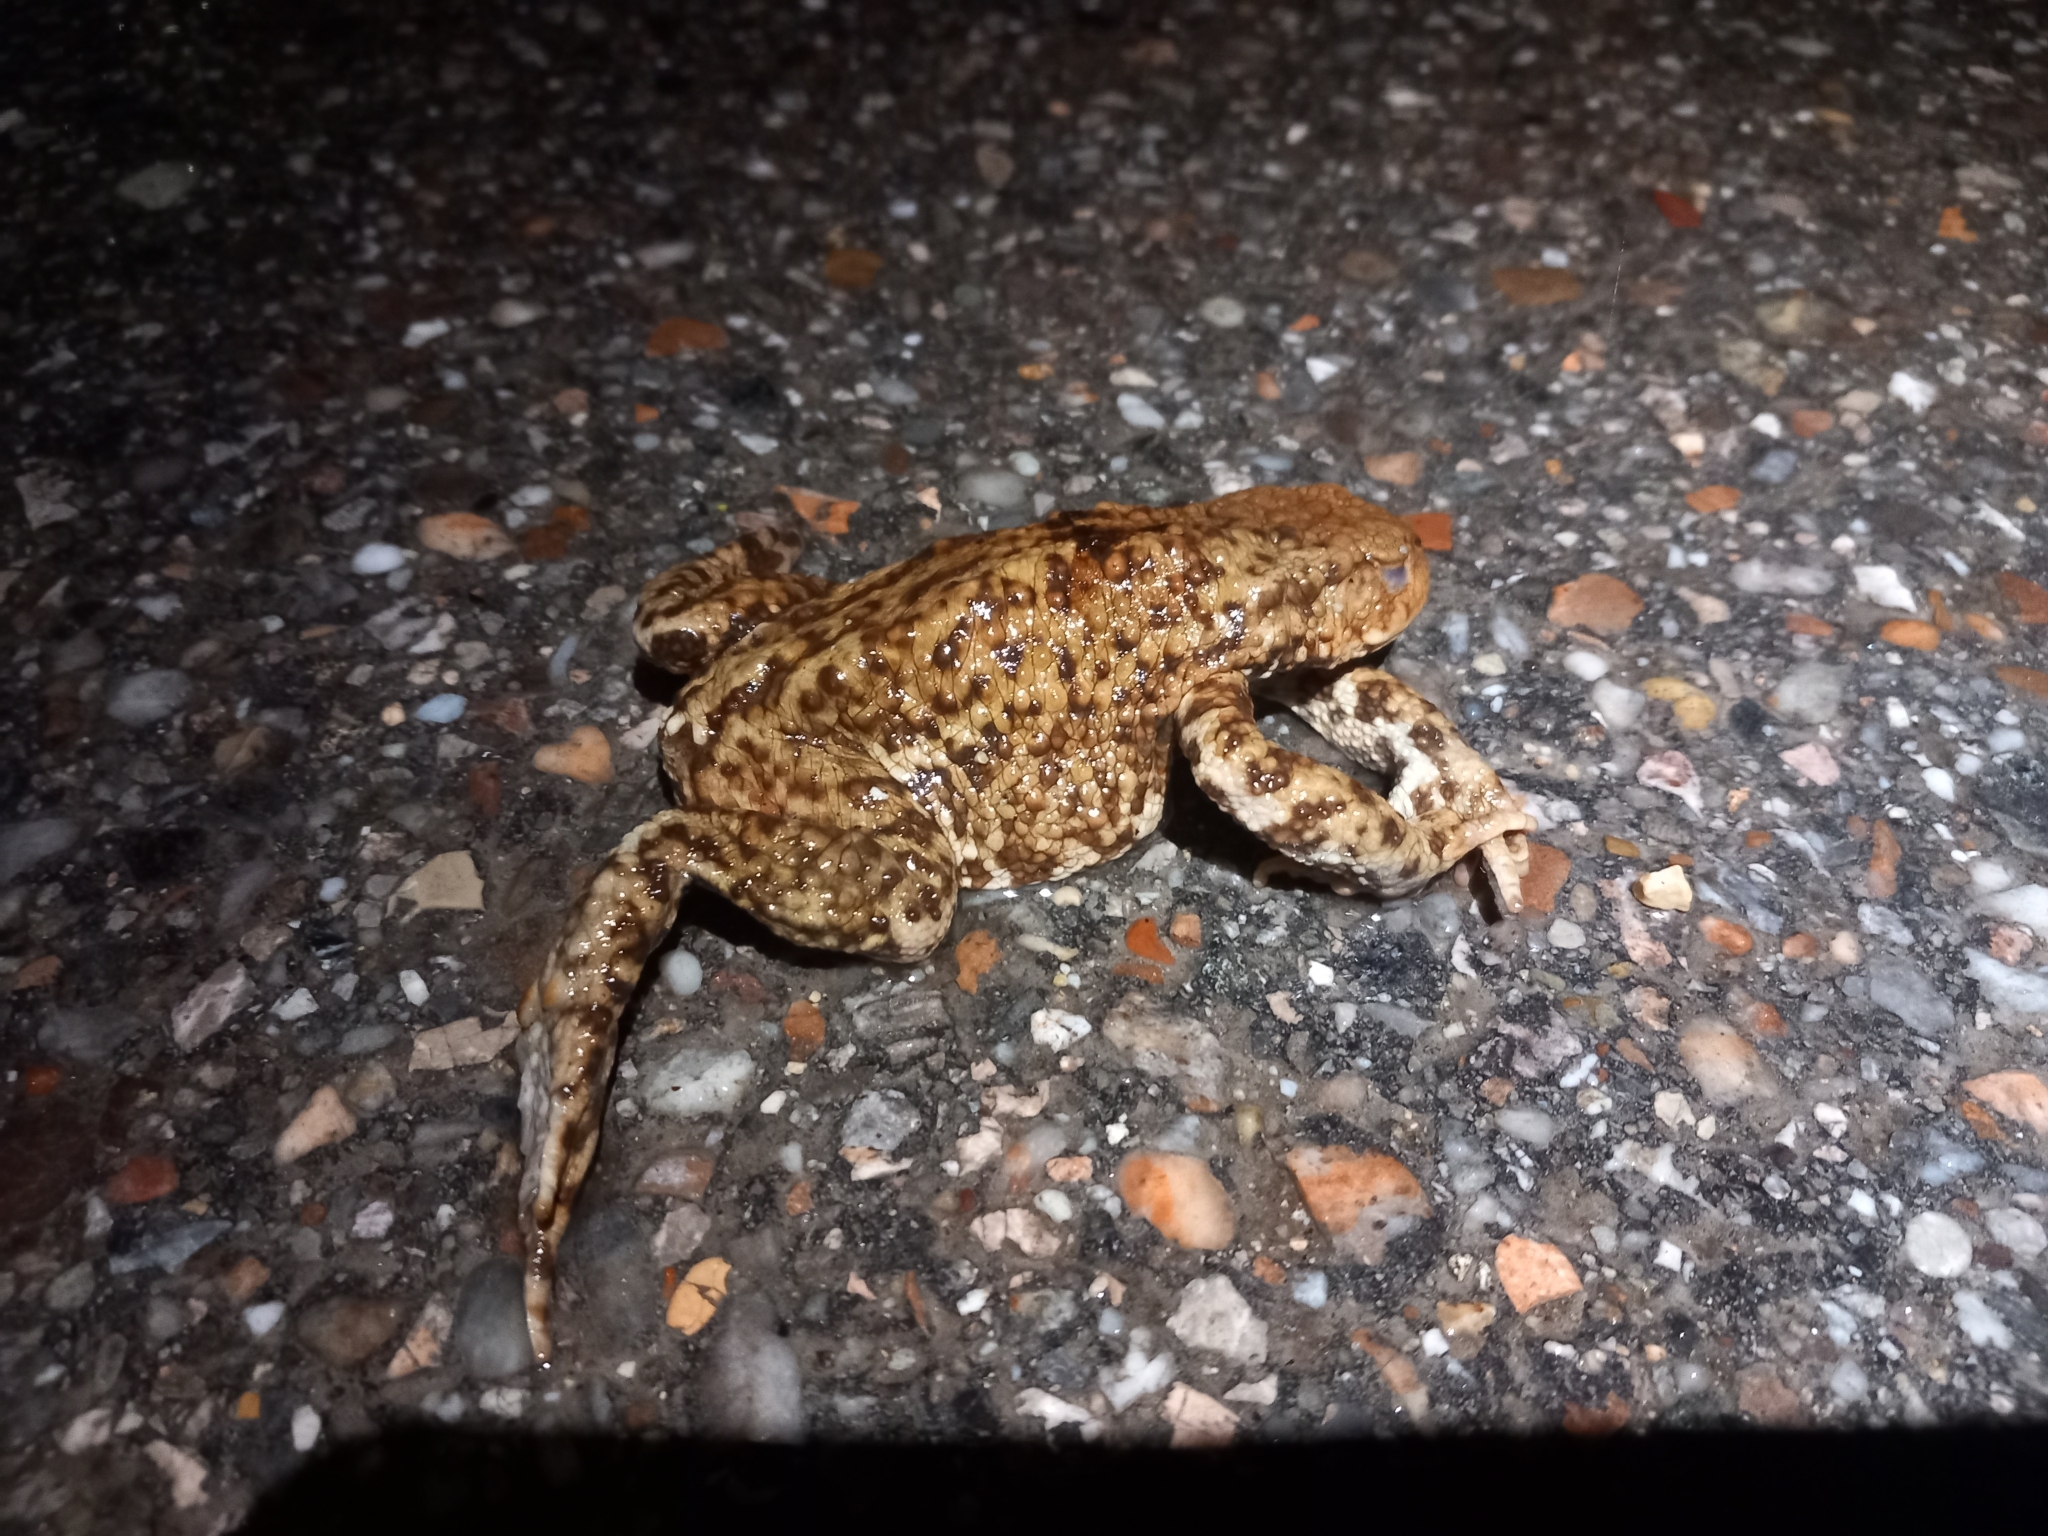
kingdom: Animalia
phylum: Chordata
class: Amphibia
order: Anura
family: Bufonidae
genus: Bufo
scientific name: Bufo bufo
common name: Common toad
